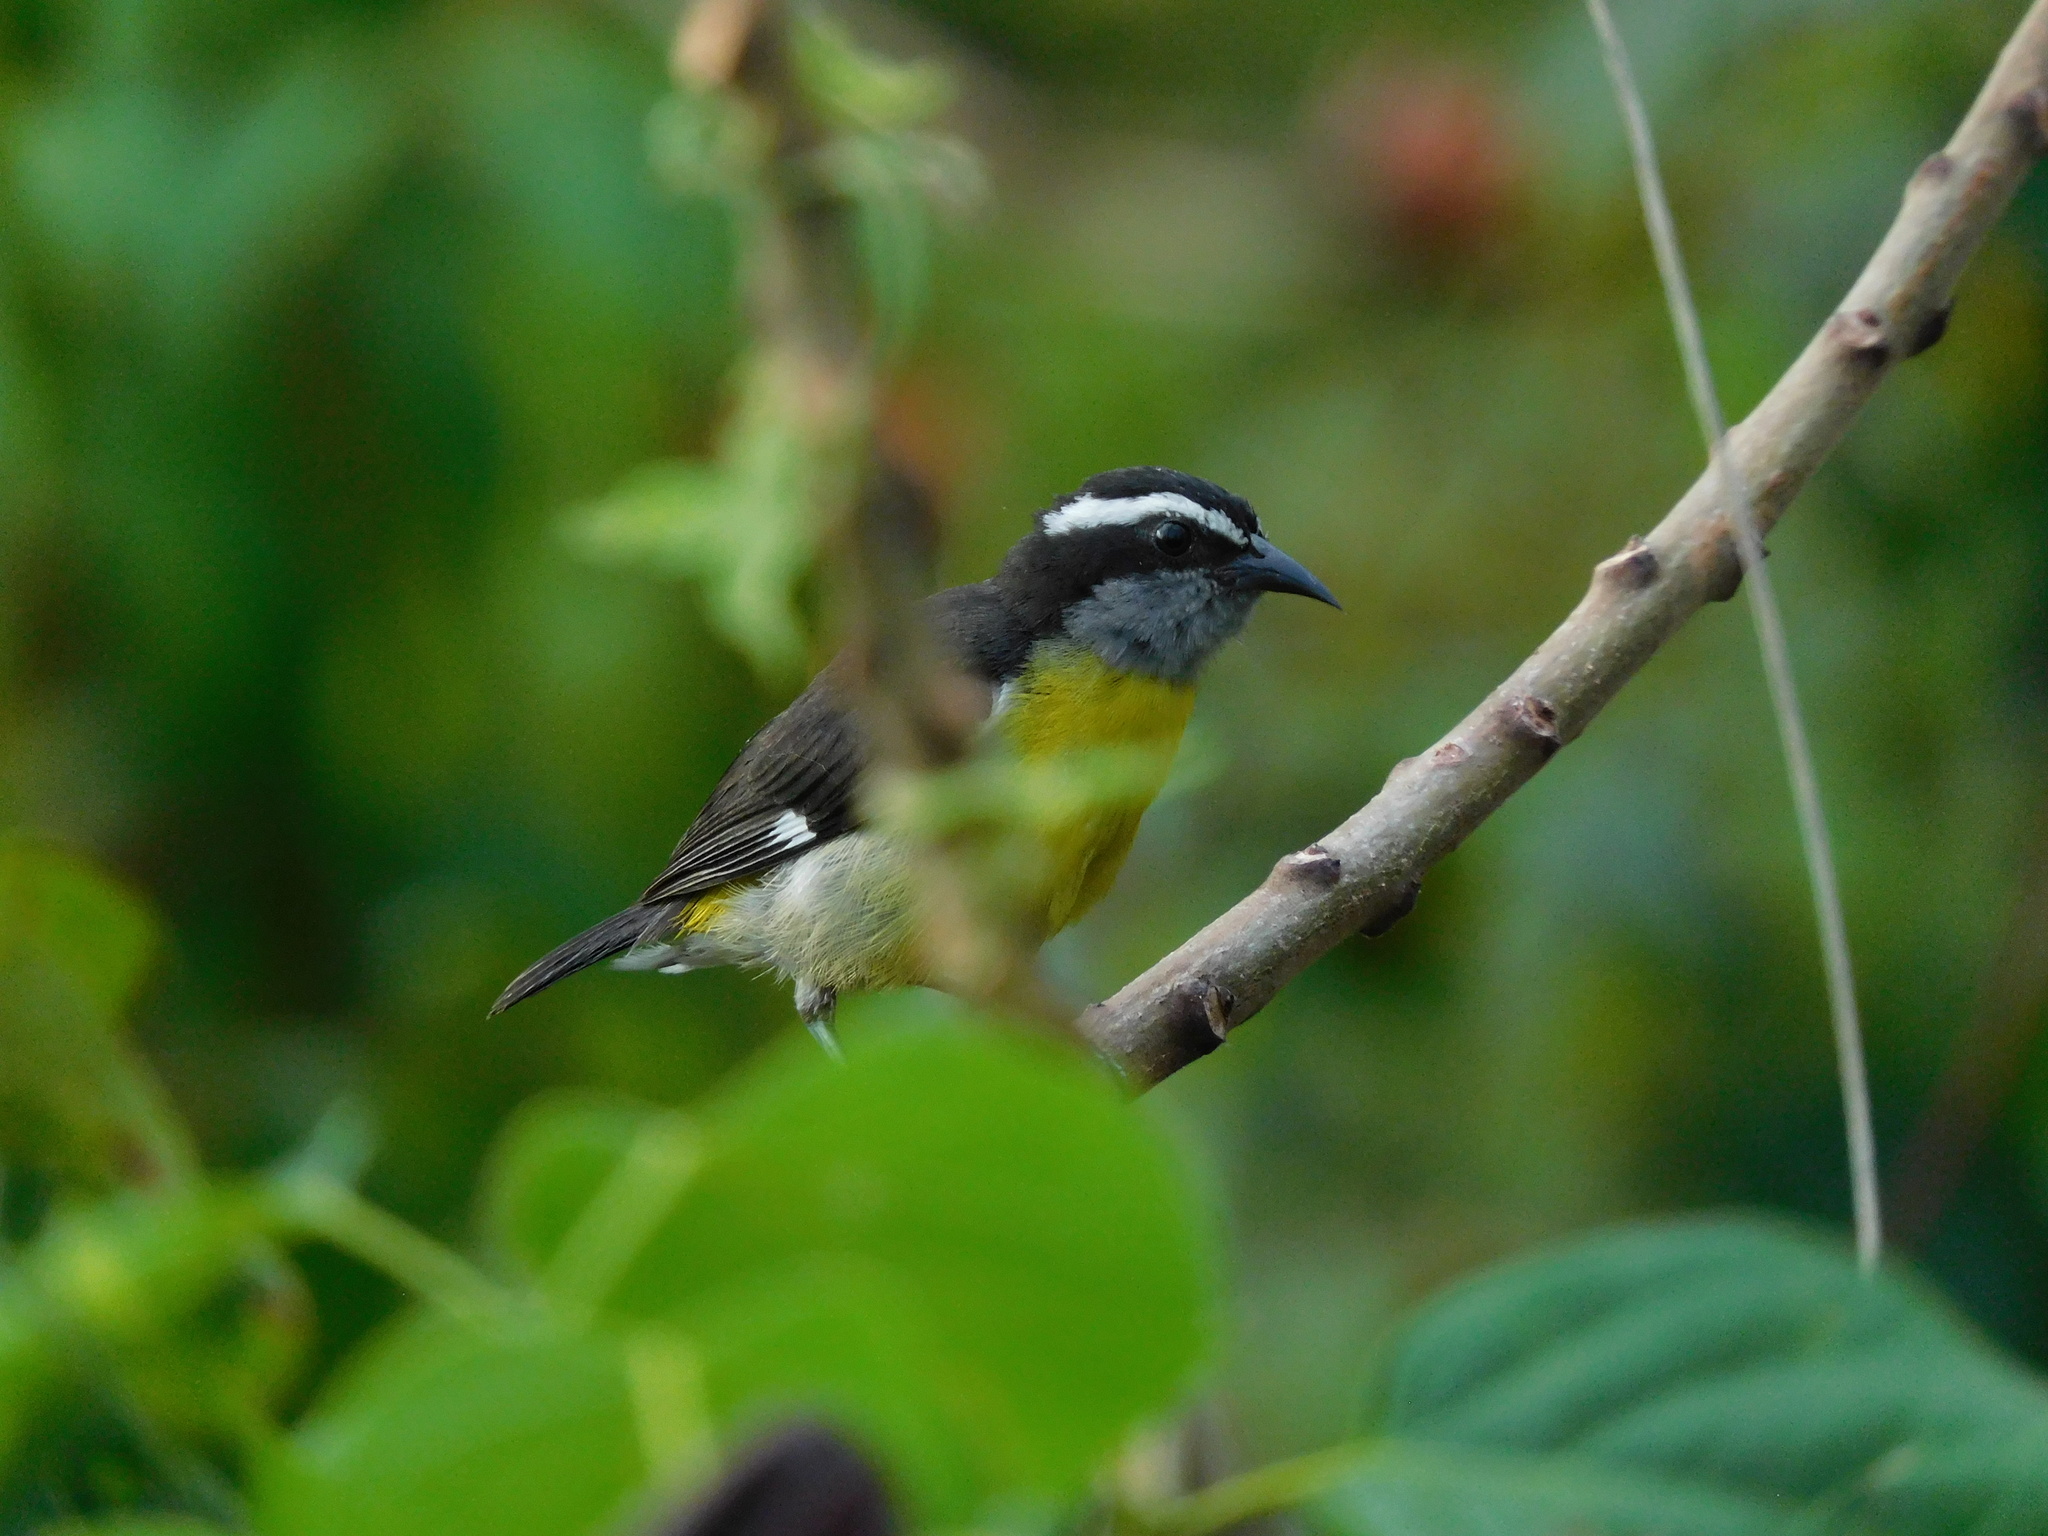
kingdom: Animalia
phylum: Chordata
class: Aves
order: Passeriformes
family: Thraupidae
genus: Coereba
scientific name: Coereba flaveola
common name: Bananaquit
